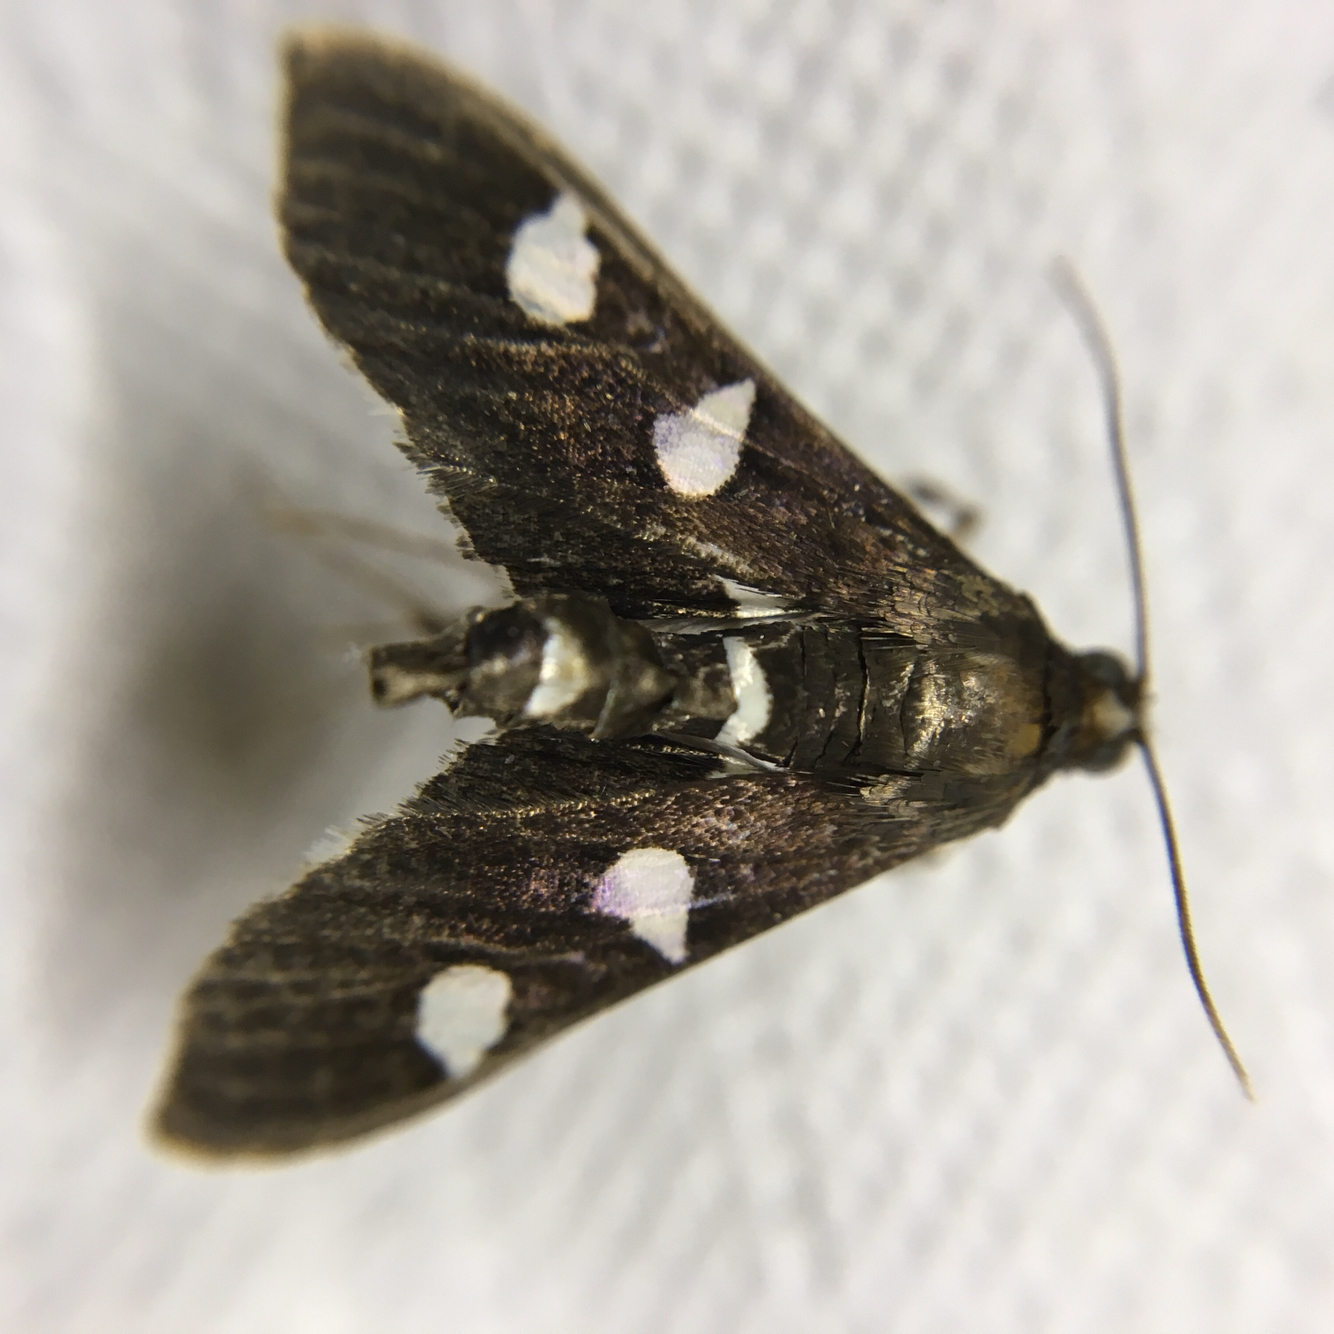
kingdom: Animalia
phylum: Arthropoda
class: Insecta
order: Lepidoptera
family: Crambidae
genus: Desmia
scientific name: Desmia funeralis
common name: Grape leaf folder moth
